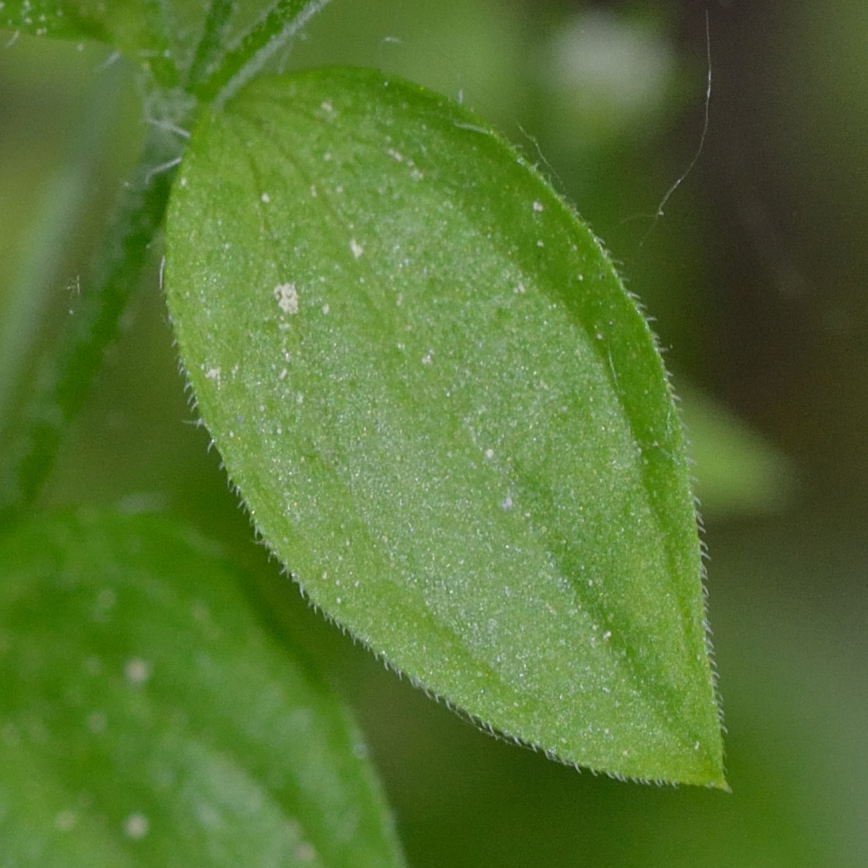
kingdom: Plantae
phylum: Tracheophyta
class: Magnoliopsida
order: Caryophyllales
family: Caryophyllaceae
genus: Moehringia
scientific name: Moehringia trinervia
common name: Three-nerved sandwort
